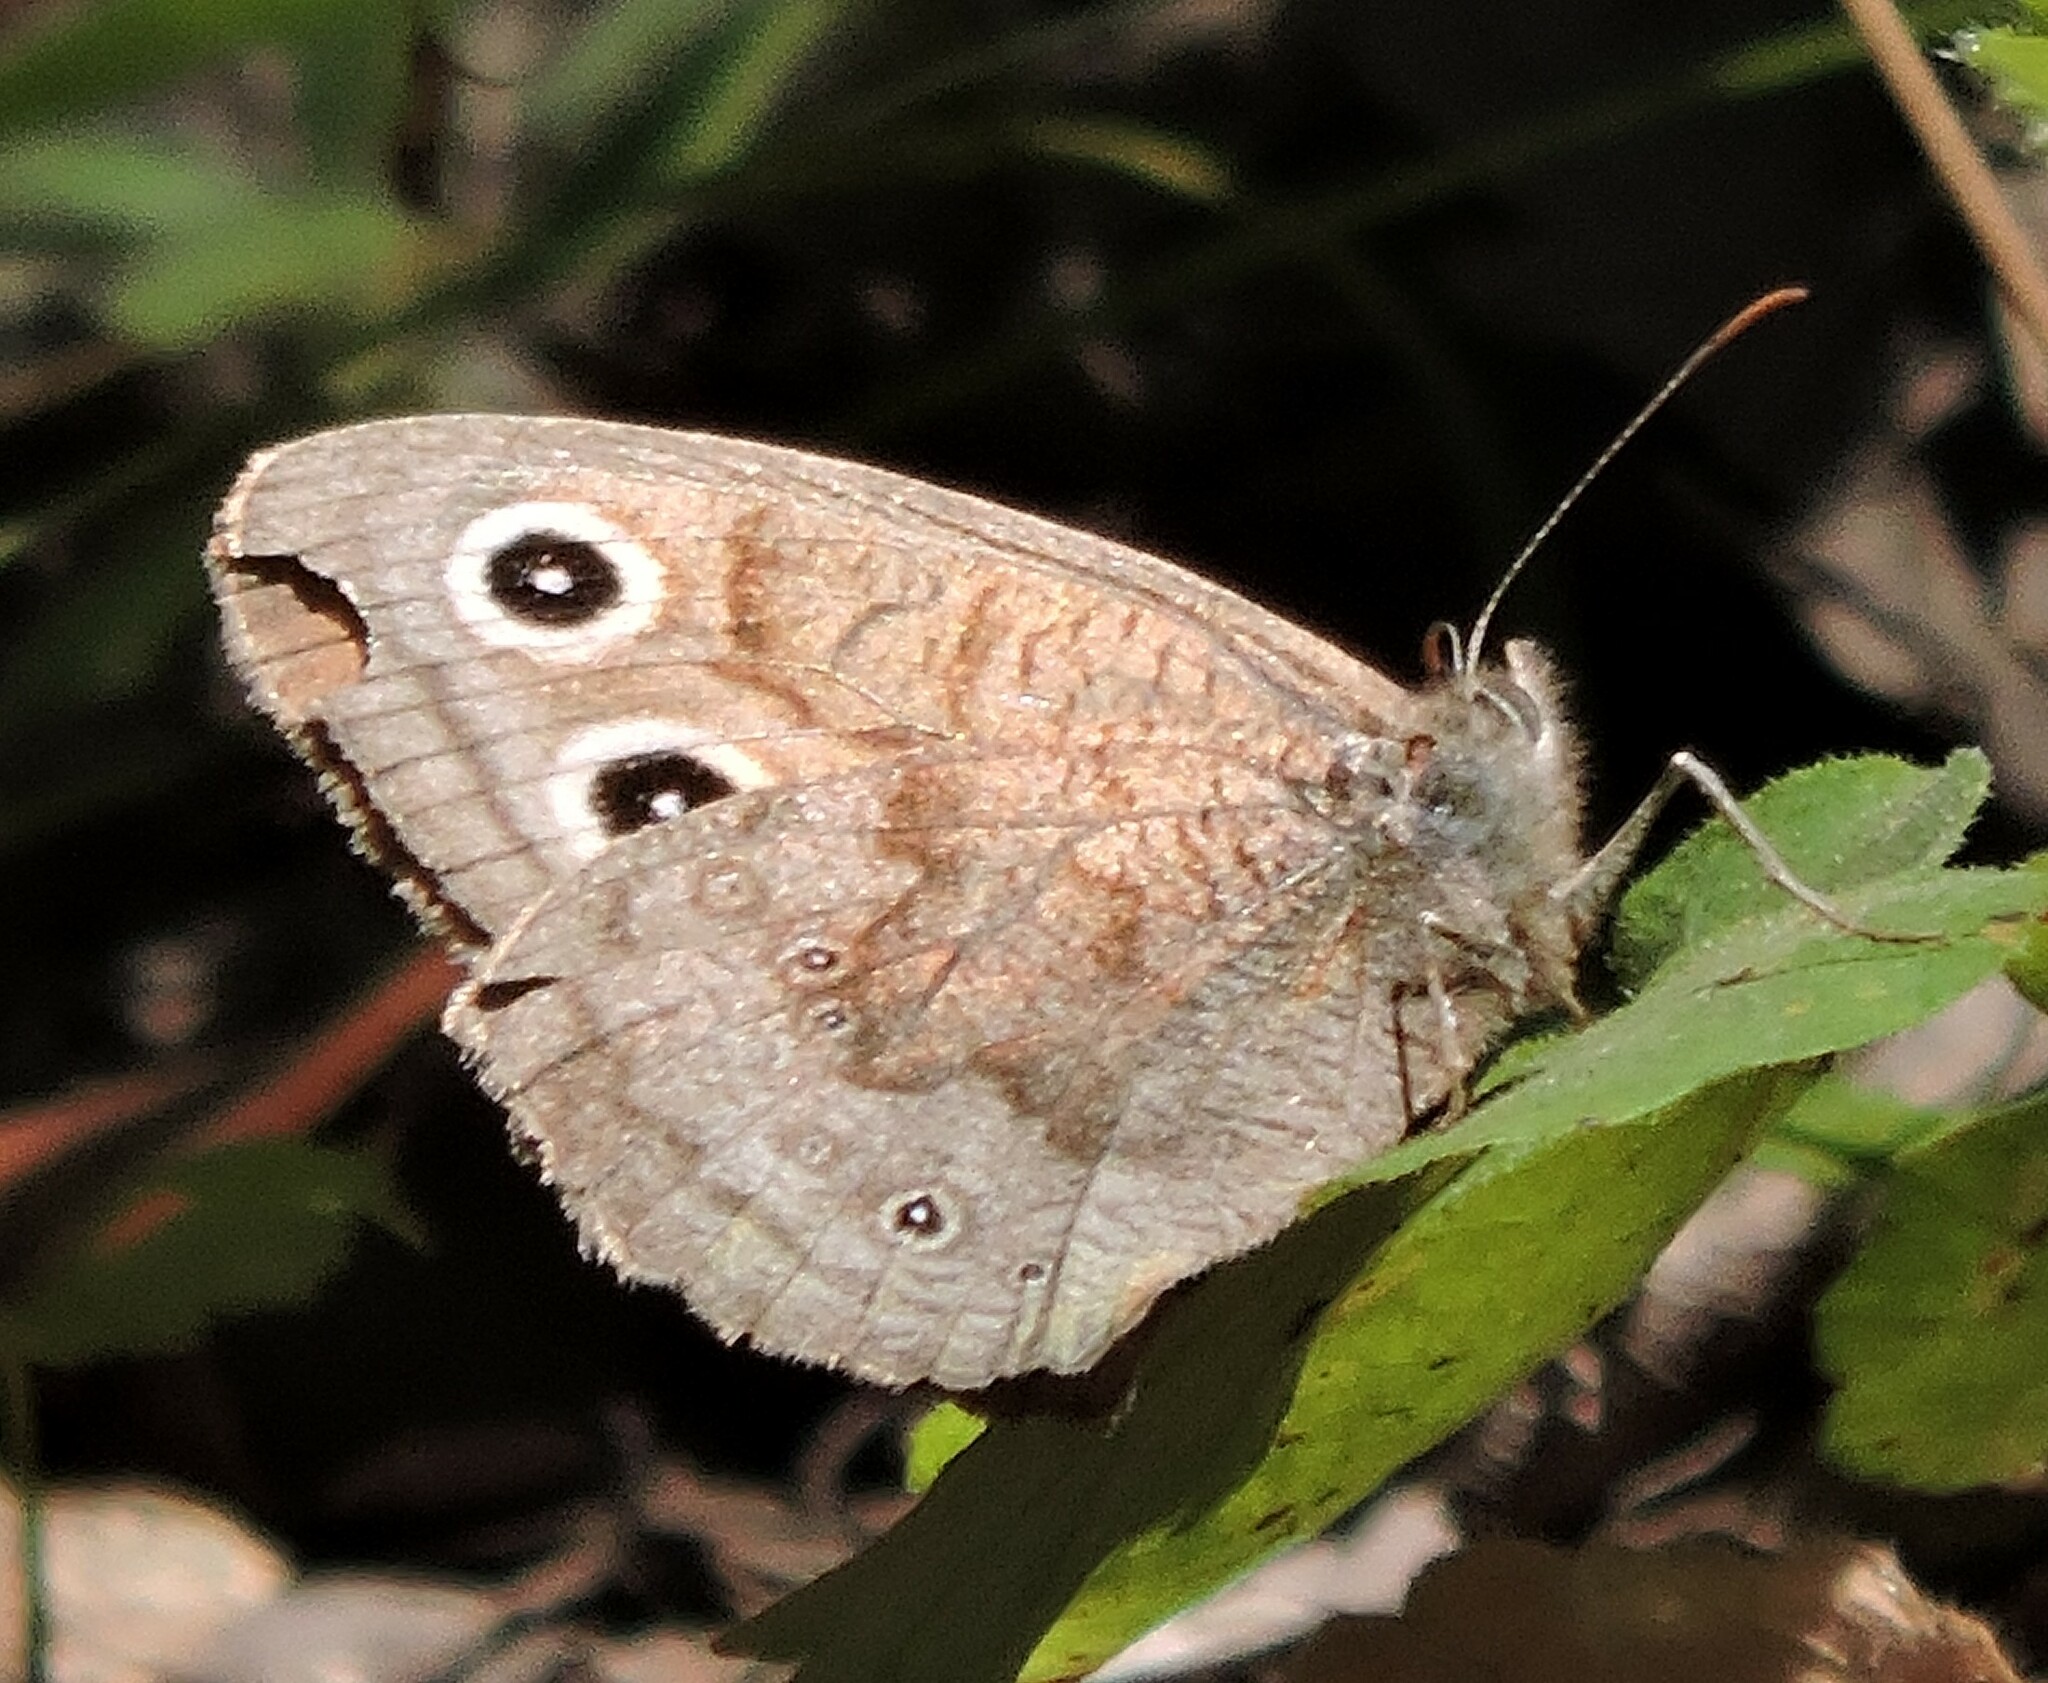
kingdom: Animalia
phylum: Arthropoda
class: Insecta
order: Lepidoptera
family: Nymphalidae
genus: Cercyonis
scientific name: Cercyonis pegala
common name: Common wood-nymph
